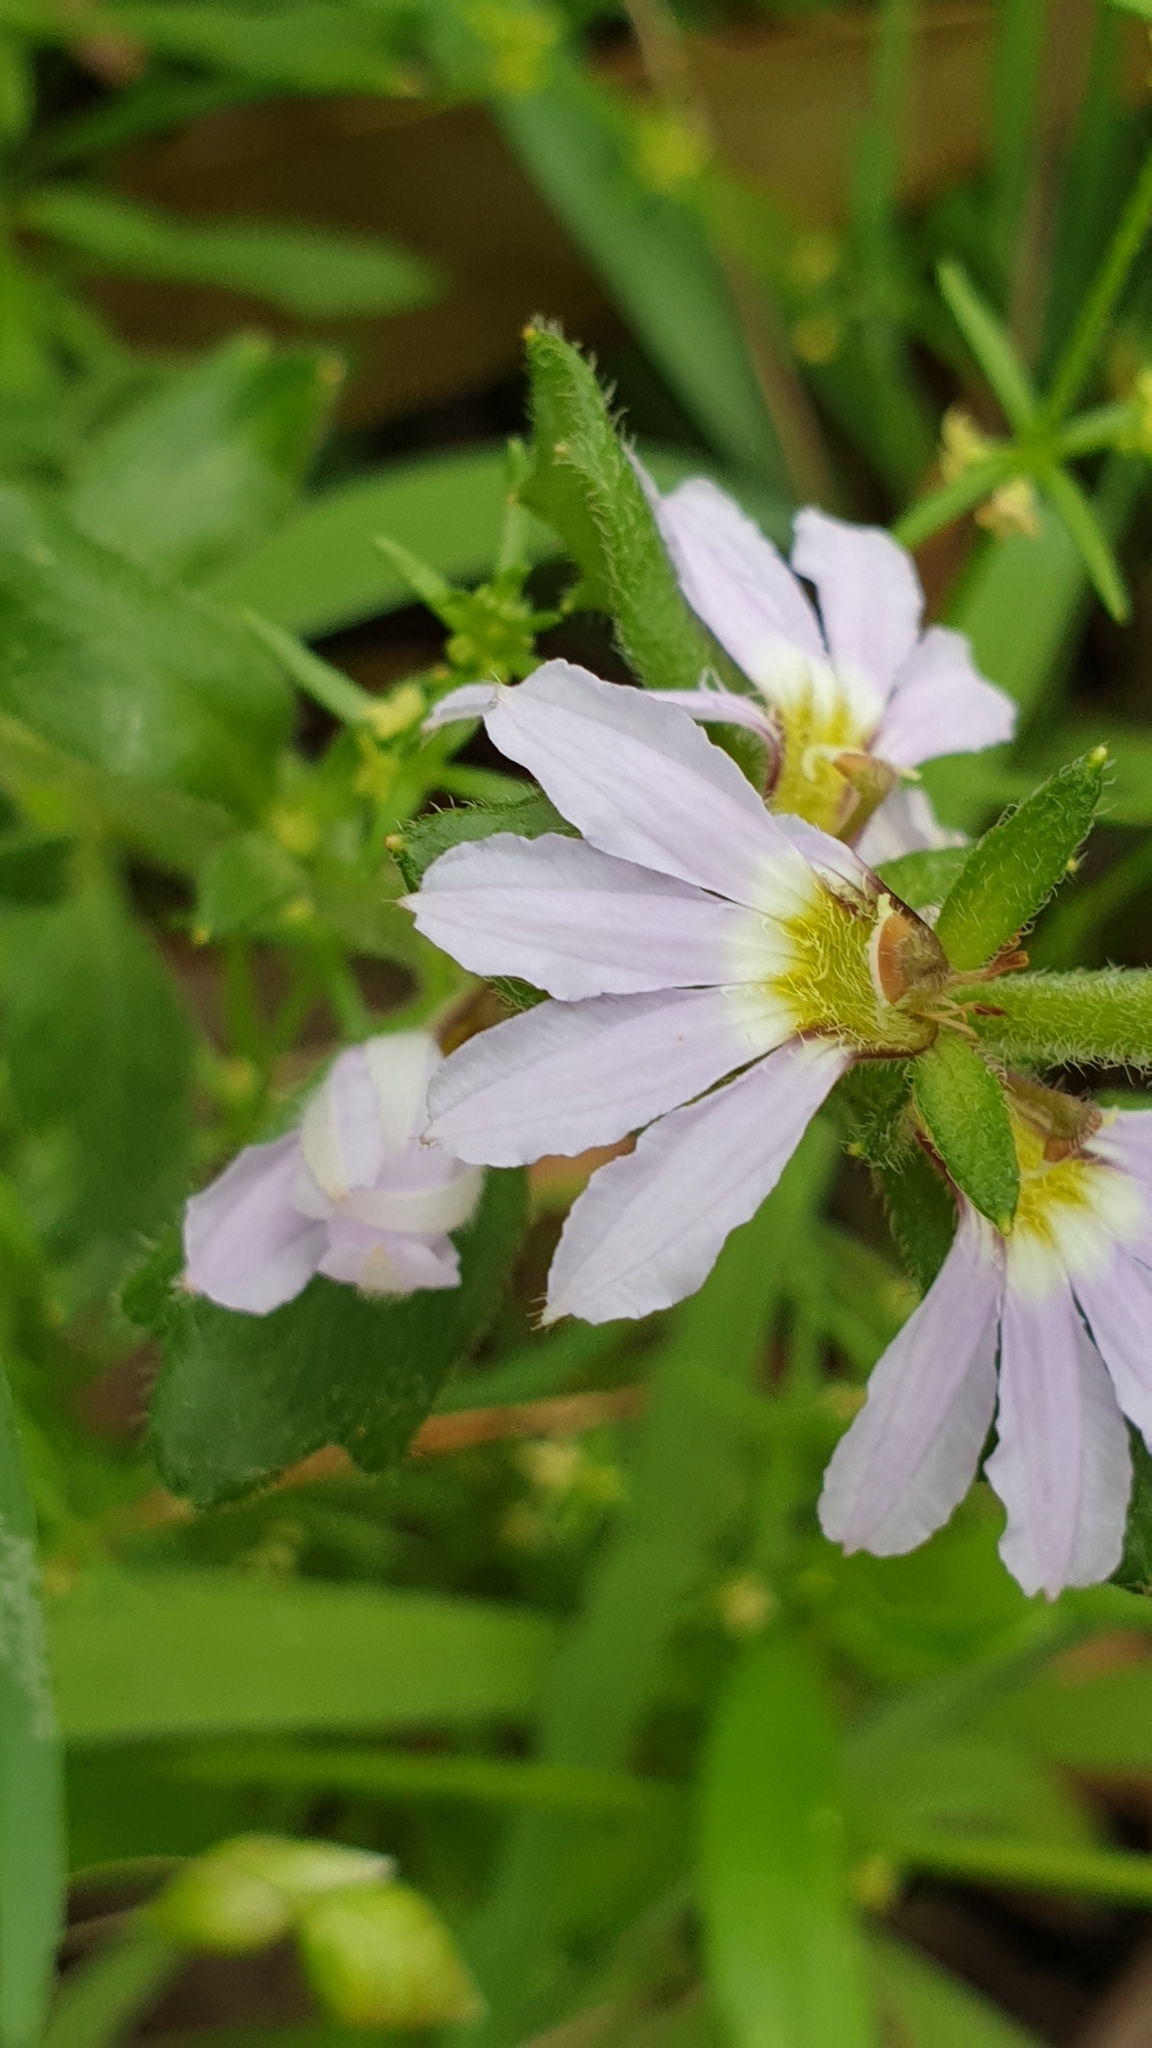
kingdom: Plantae
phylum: Tracheophyta
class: Magnoliopsida
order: Asterales
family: Goodeniaceae
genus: Scaevola
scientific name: Scaevola albida
